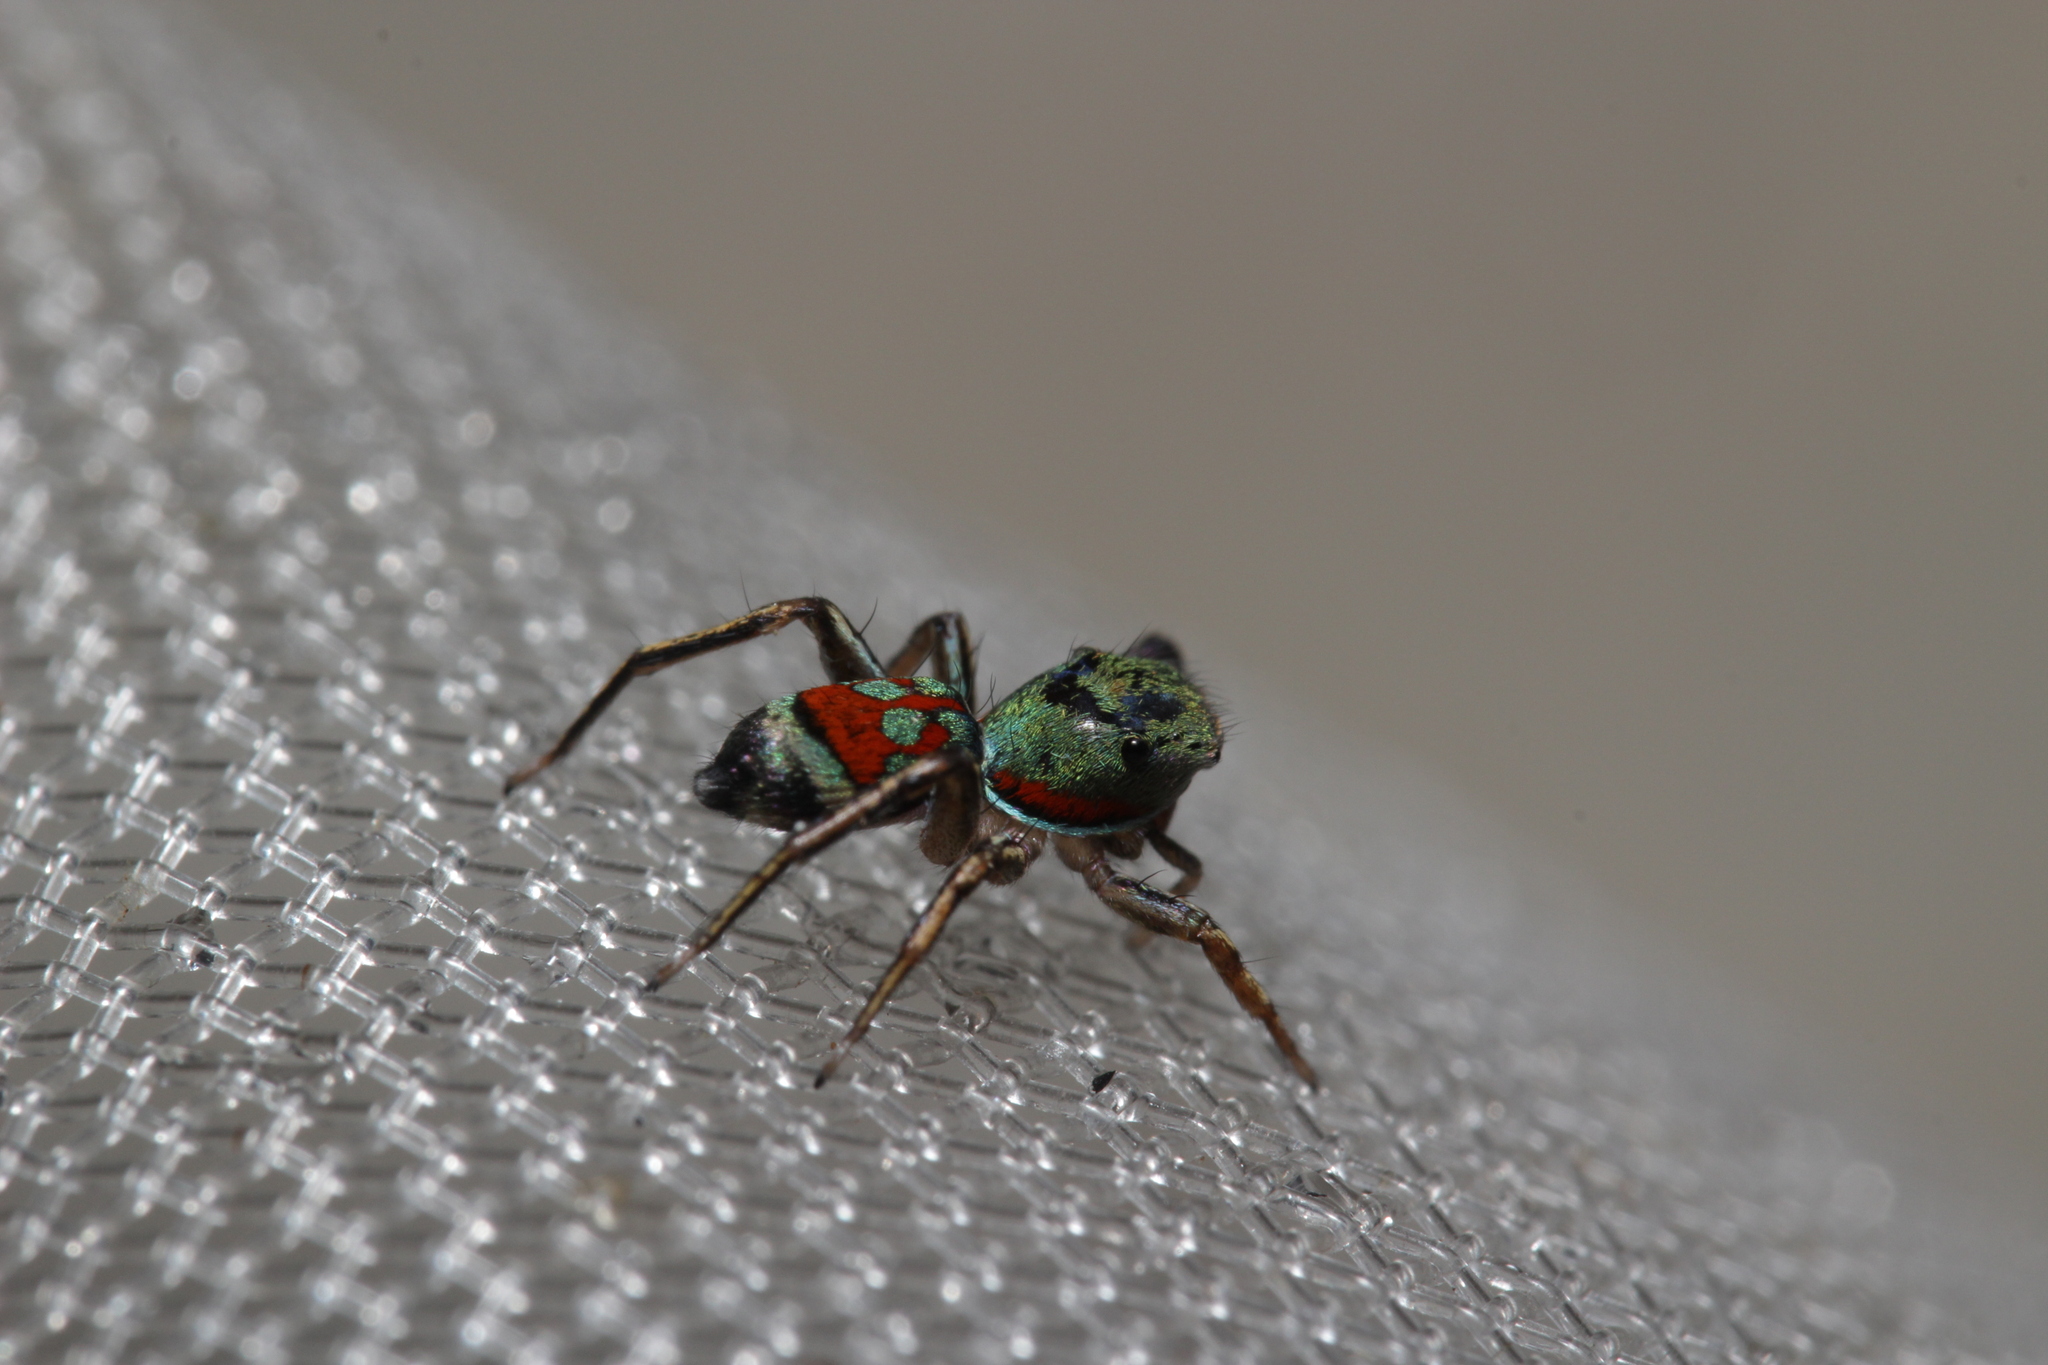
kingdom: Animalia
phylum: Arthropoda
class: Arachnida
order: Araneae
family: Salticidae
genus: Siler
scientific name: Siler semiglaucus
